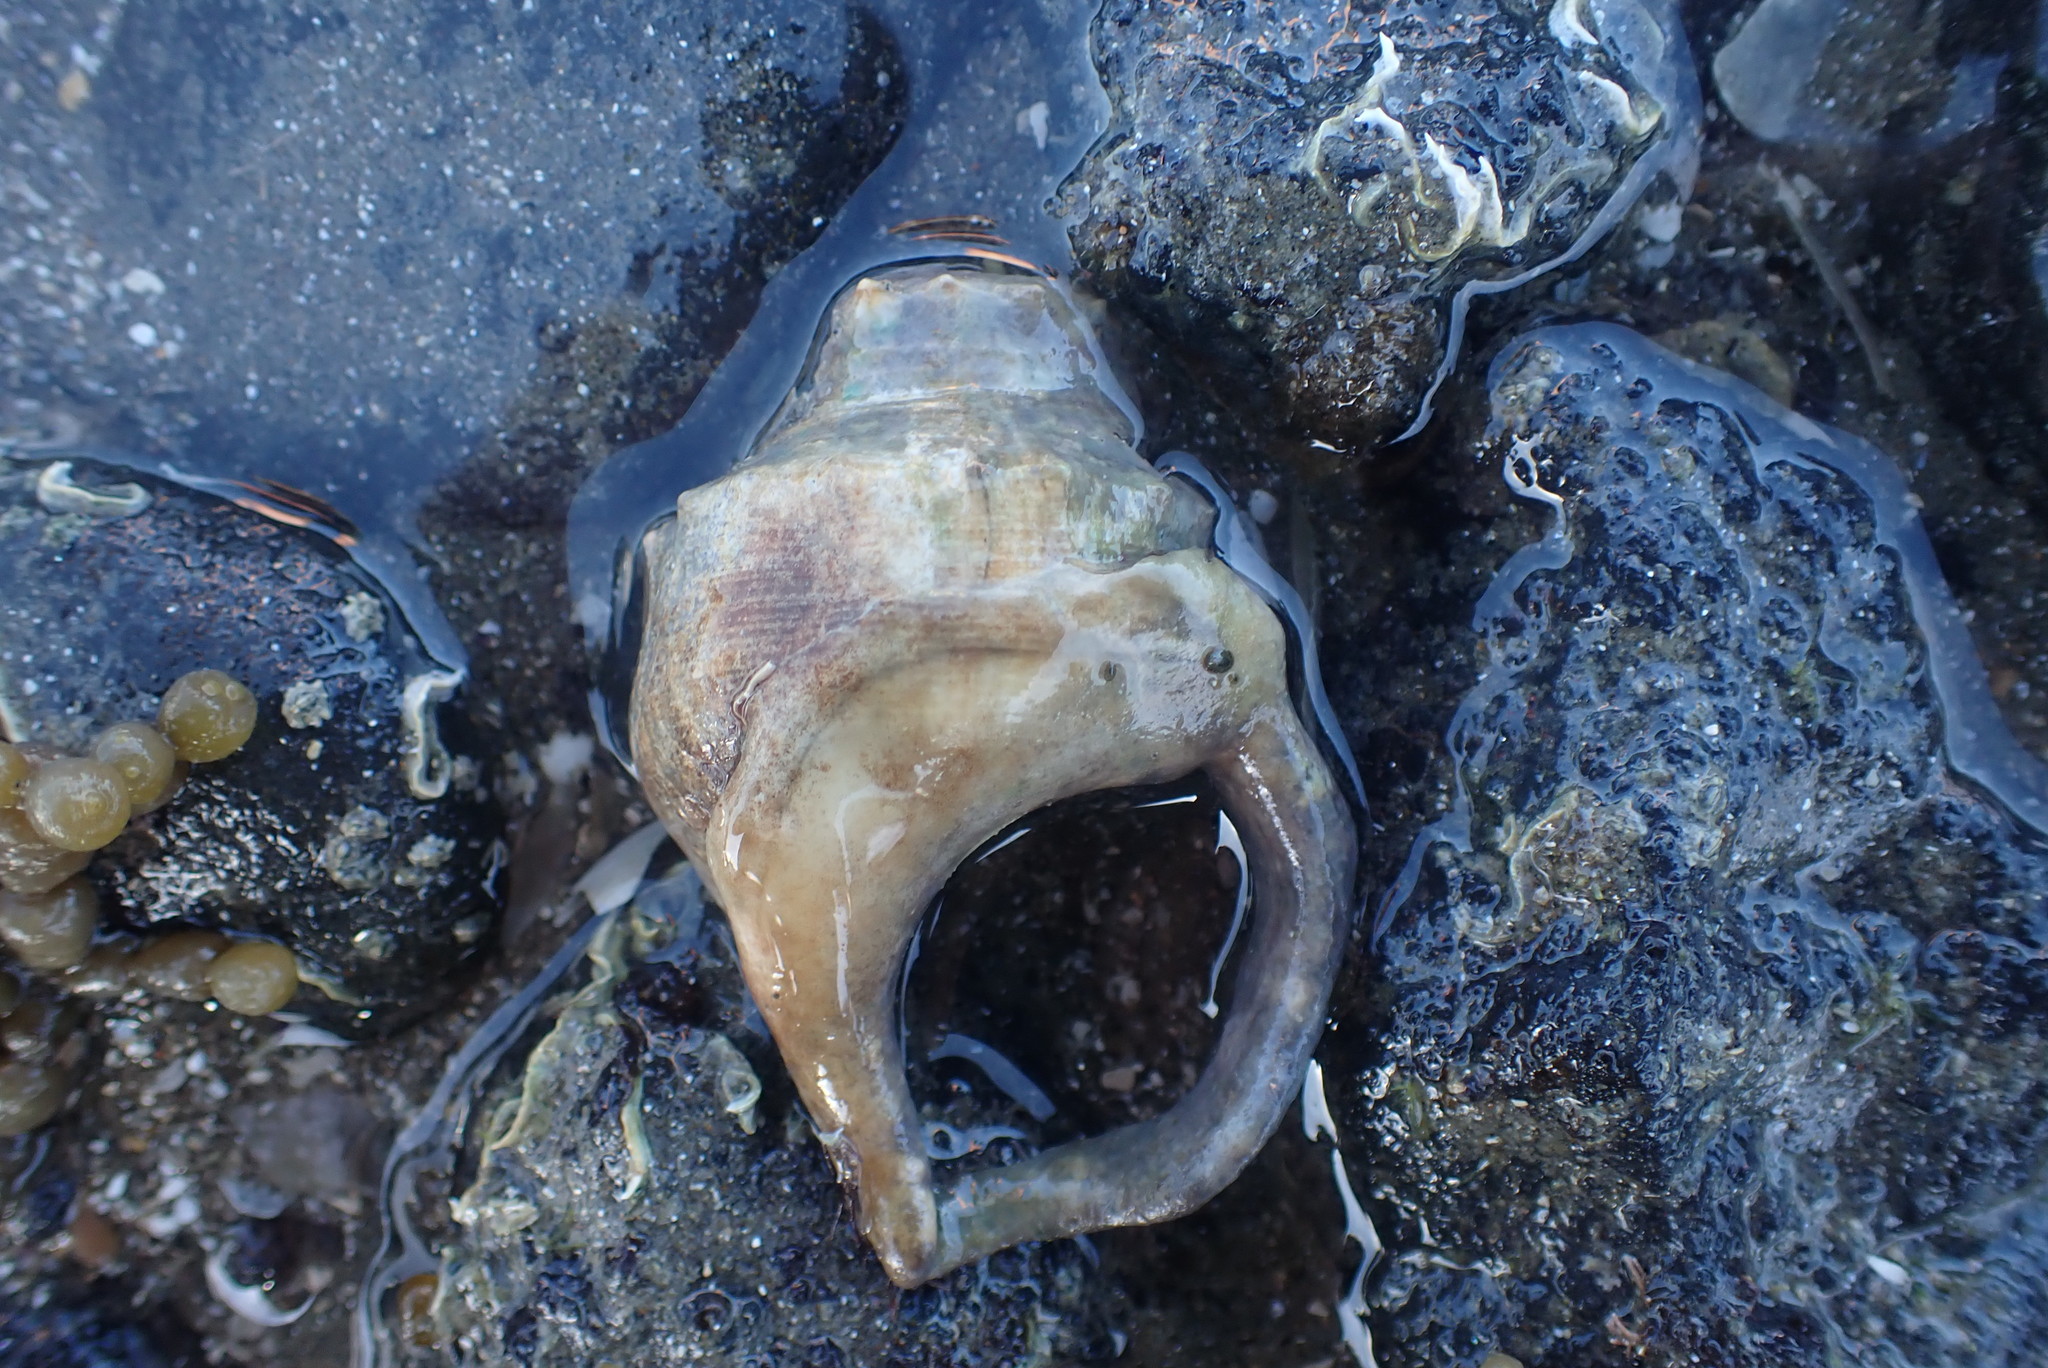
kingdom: Animalia
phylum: Mollusca
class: Gastropoda
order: Littorinimorpha
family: Struthiolariidae
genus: Struthiolaria
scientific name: Struthiolaria papulosa
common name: Large ostrich foot
